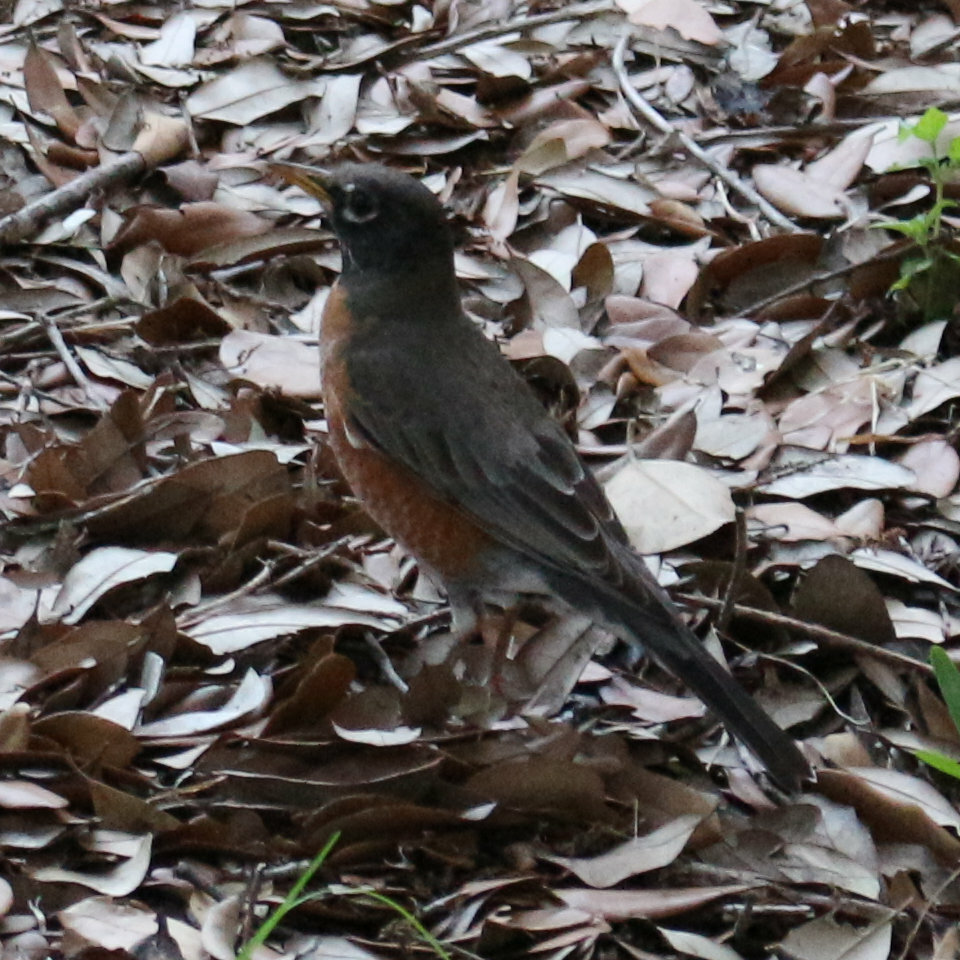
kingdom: Animalia
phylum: Chordata
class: Aves
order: Passeriformes
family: Turdidae
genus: Turdus
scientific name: Turdus migratorius
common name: American robin
